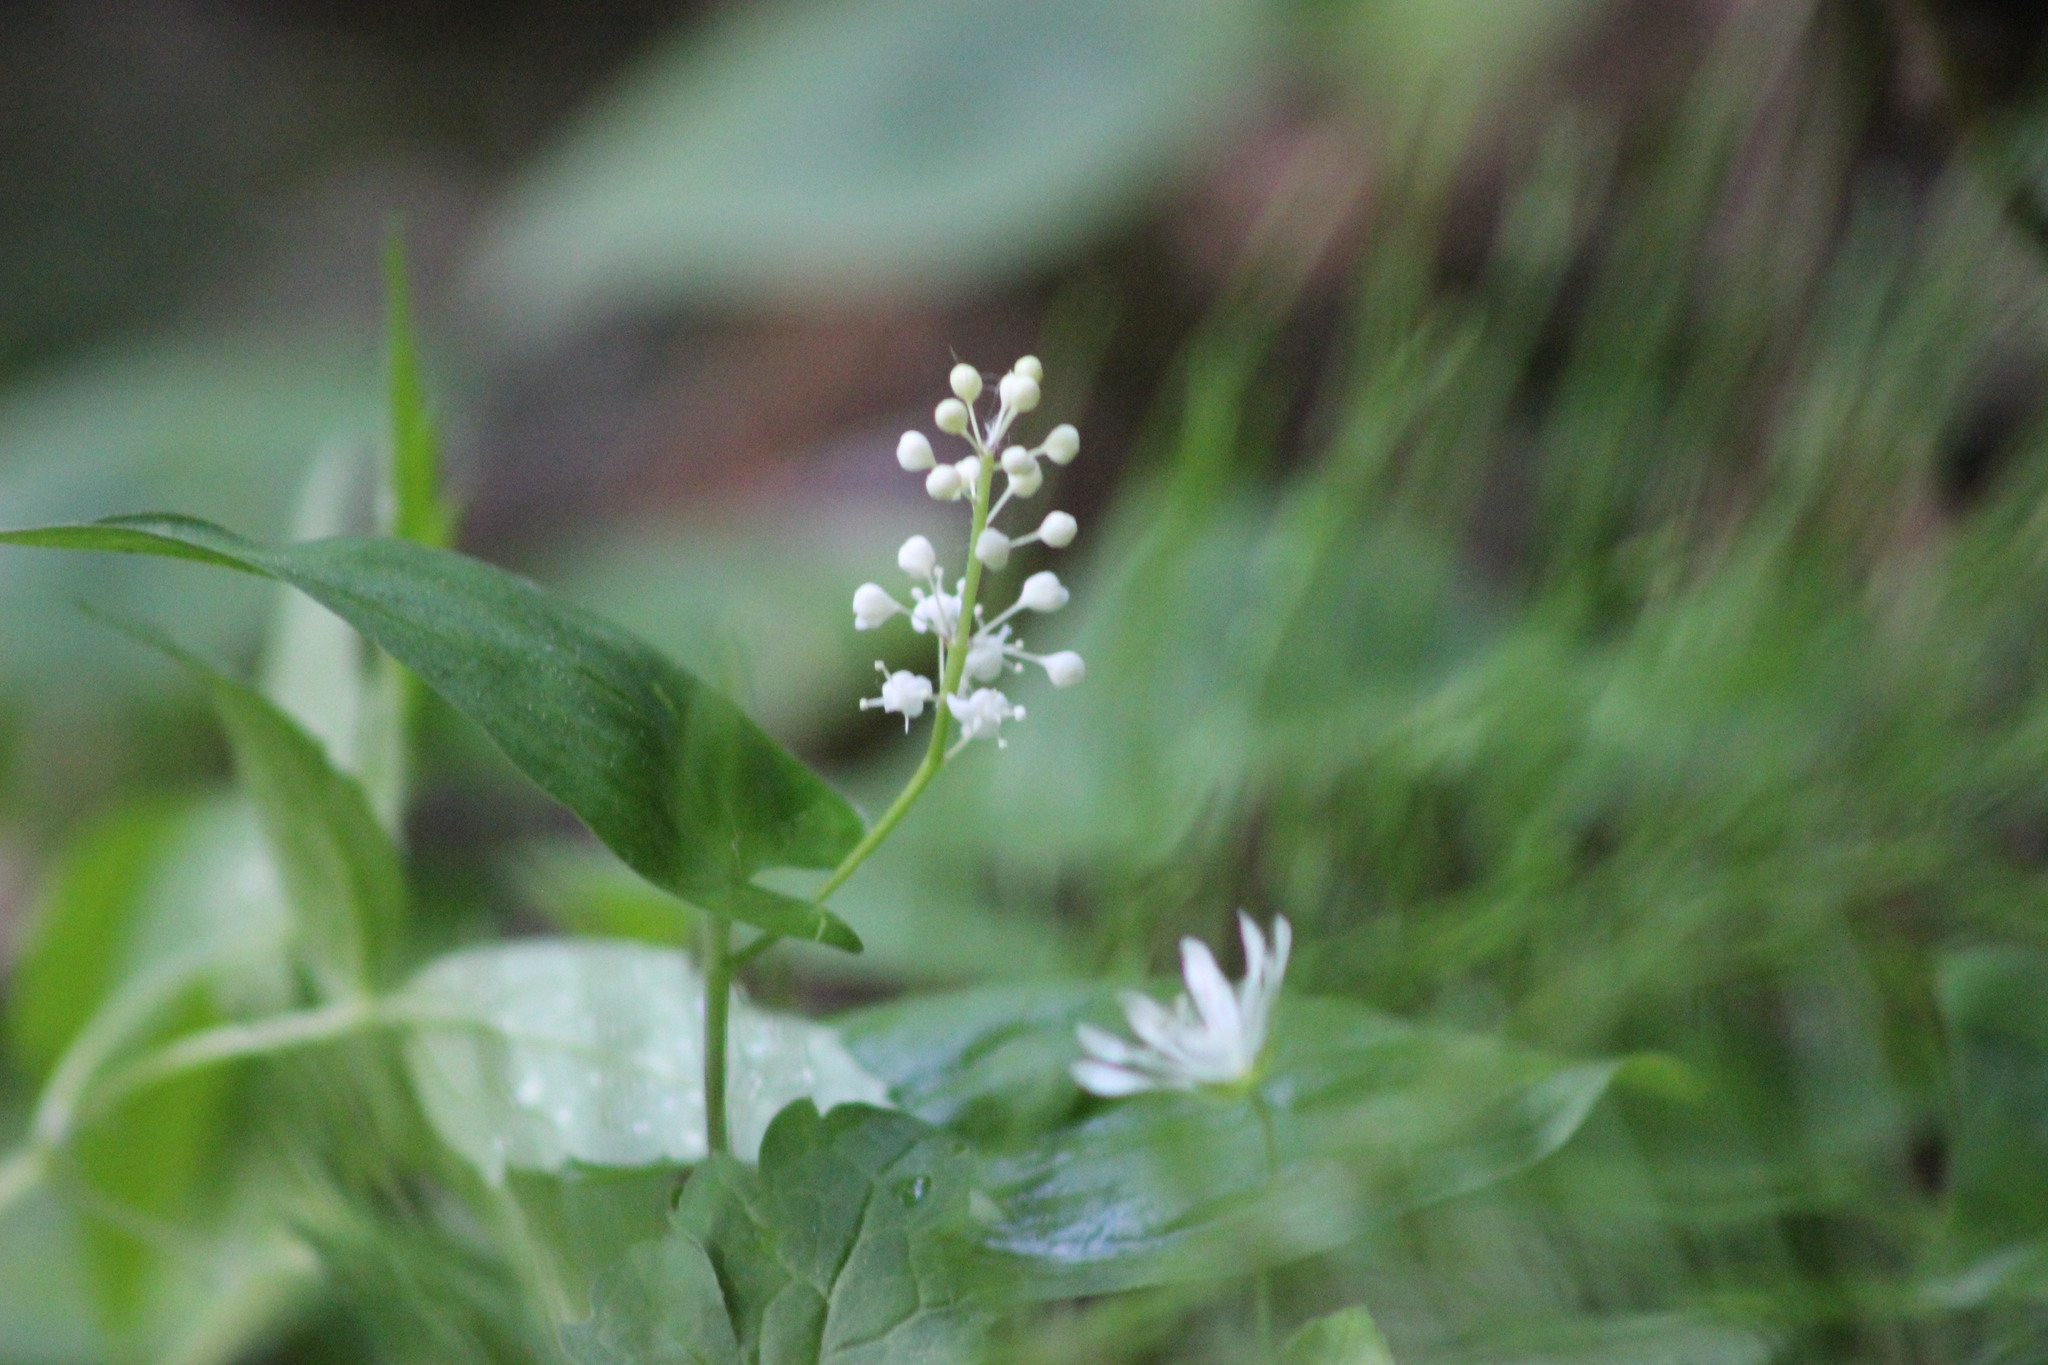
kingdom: Plantae
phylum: Tracheophyta
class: Liliopsida
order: Asparagales
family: Asparagaceae
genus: Maianthemum
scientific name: Maianthemum bifolium
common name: May lily
